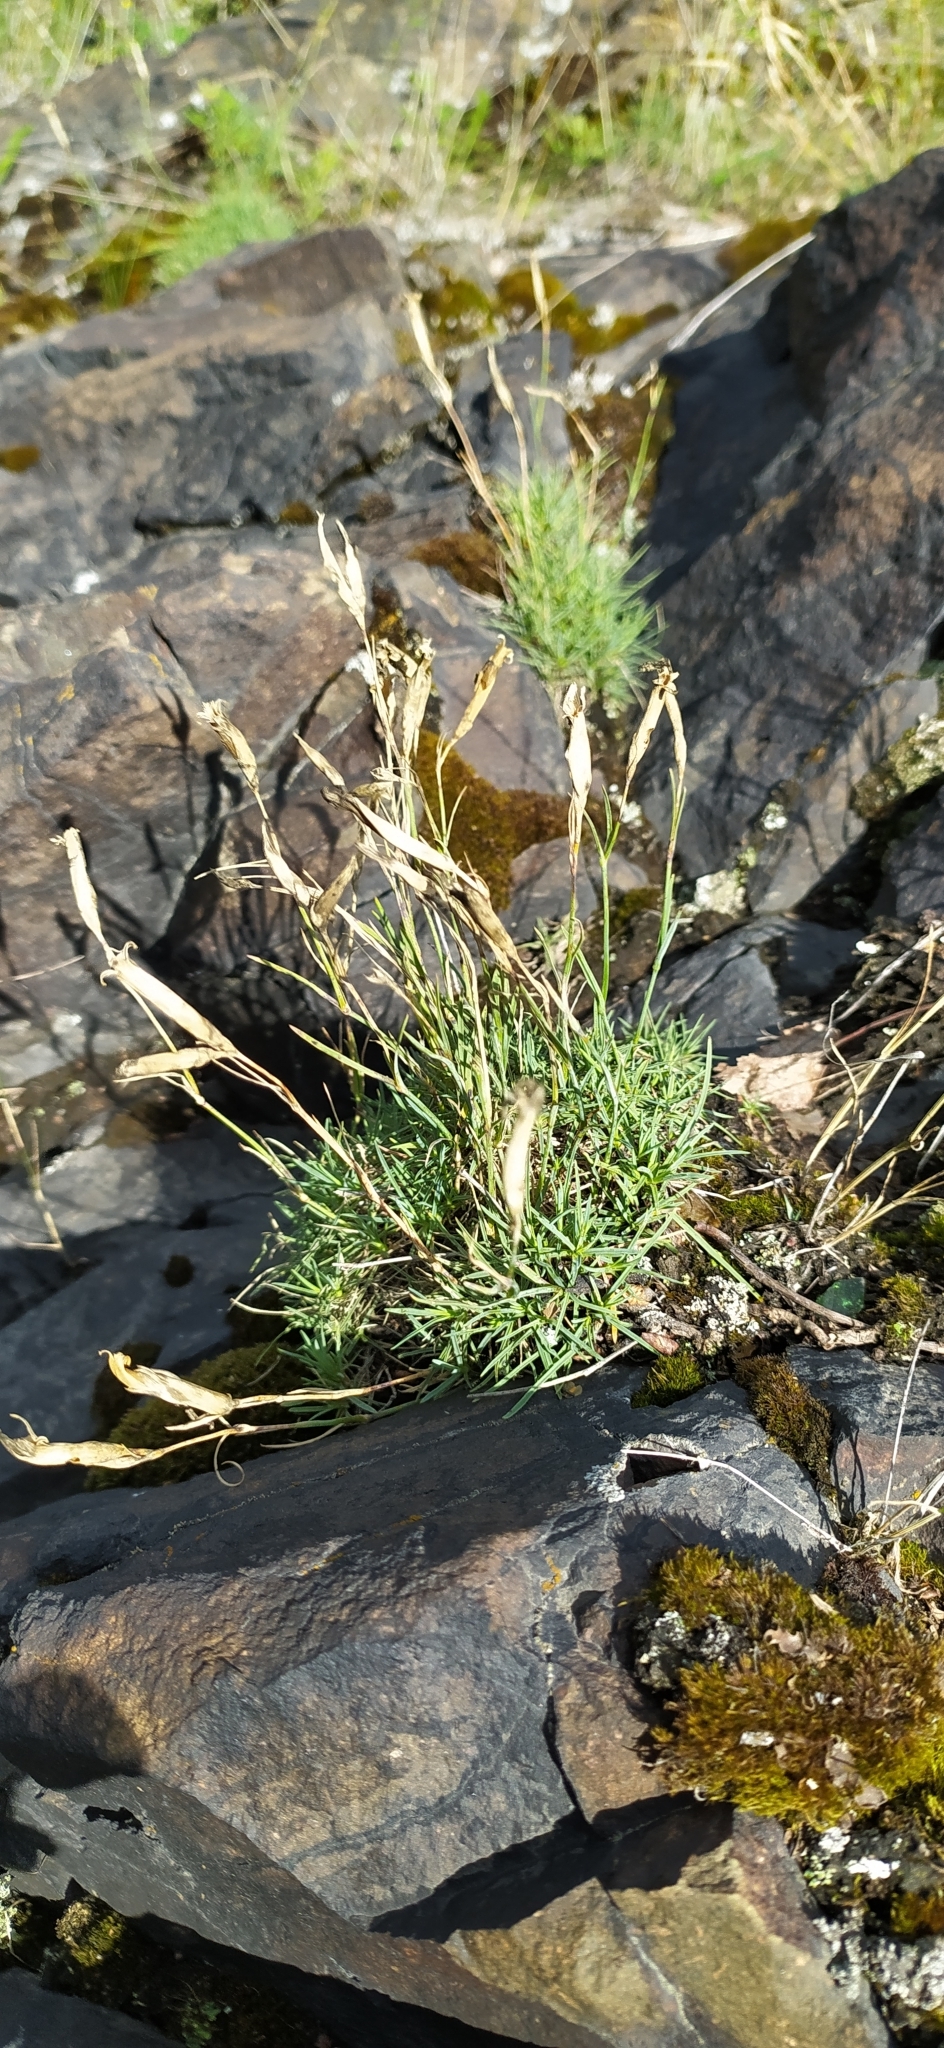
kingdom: Plantae
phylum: Tracheophyta
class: Magnoliopsida
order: Caryophyllales
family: Caryophyllaceae
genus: Dianthus
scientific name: Dianthus acicularis
